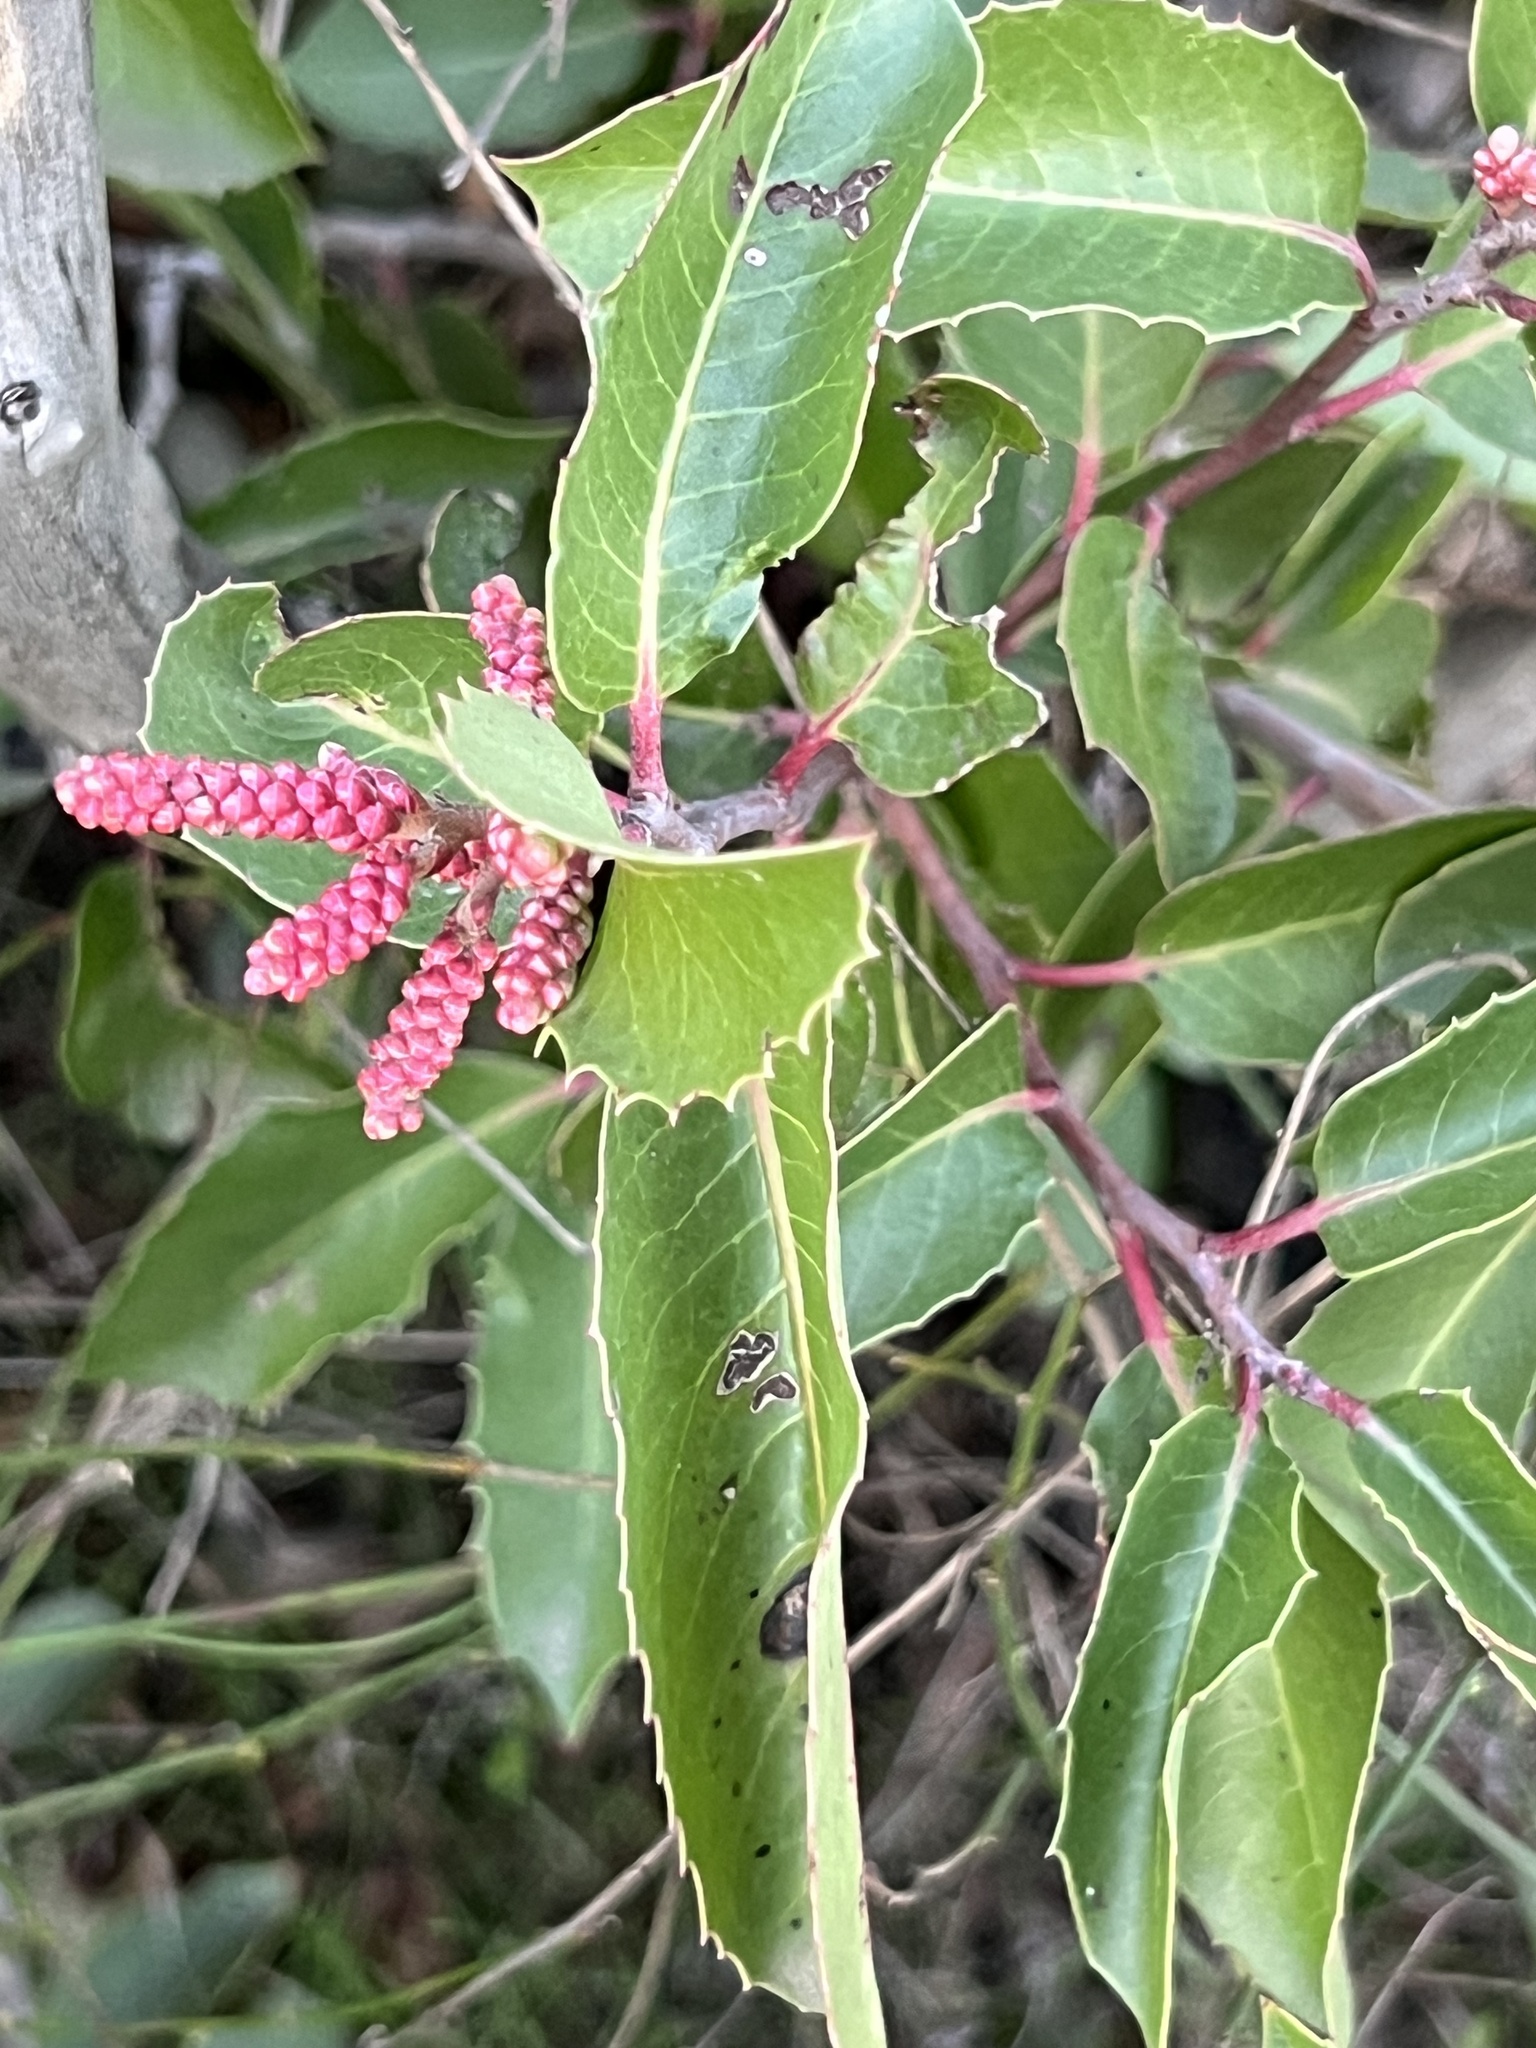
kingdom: Plantae
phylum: Tracheophyta
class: Magnoliopsida
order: Sapindales
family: Anacardiaceae
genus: Rhus
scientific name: Rhus ovata
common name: Sugar sumac
